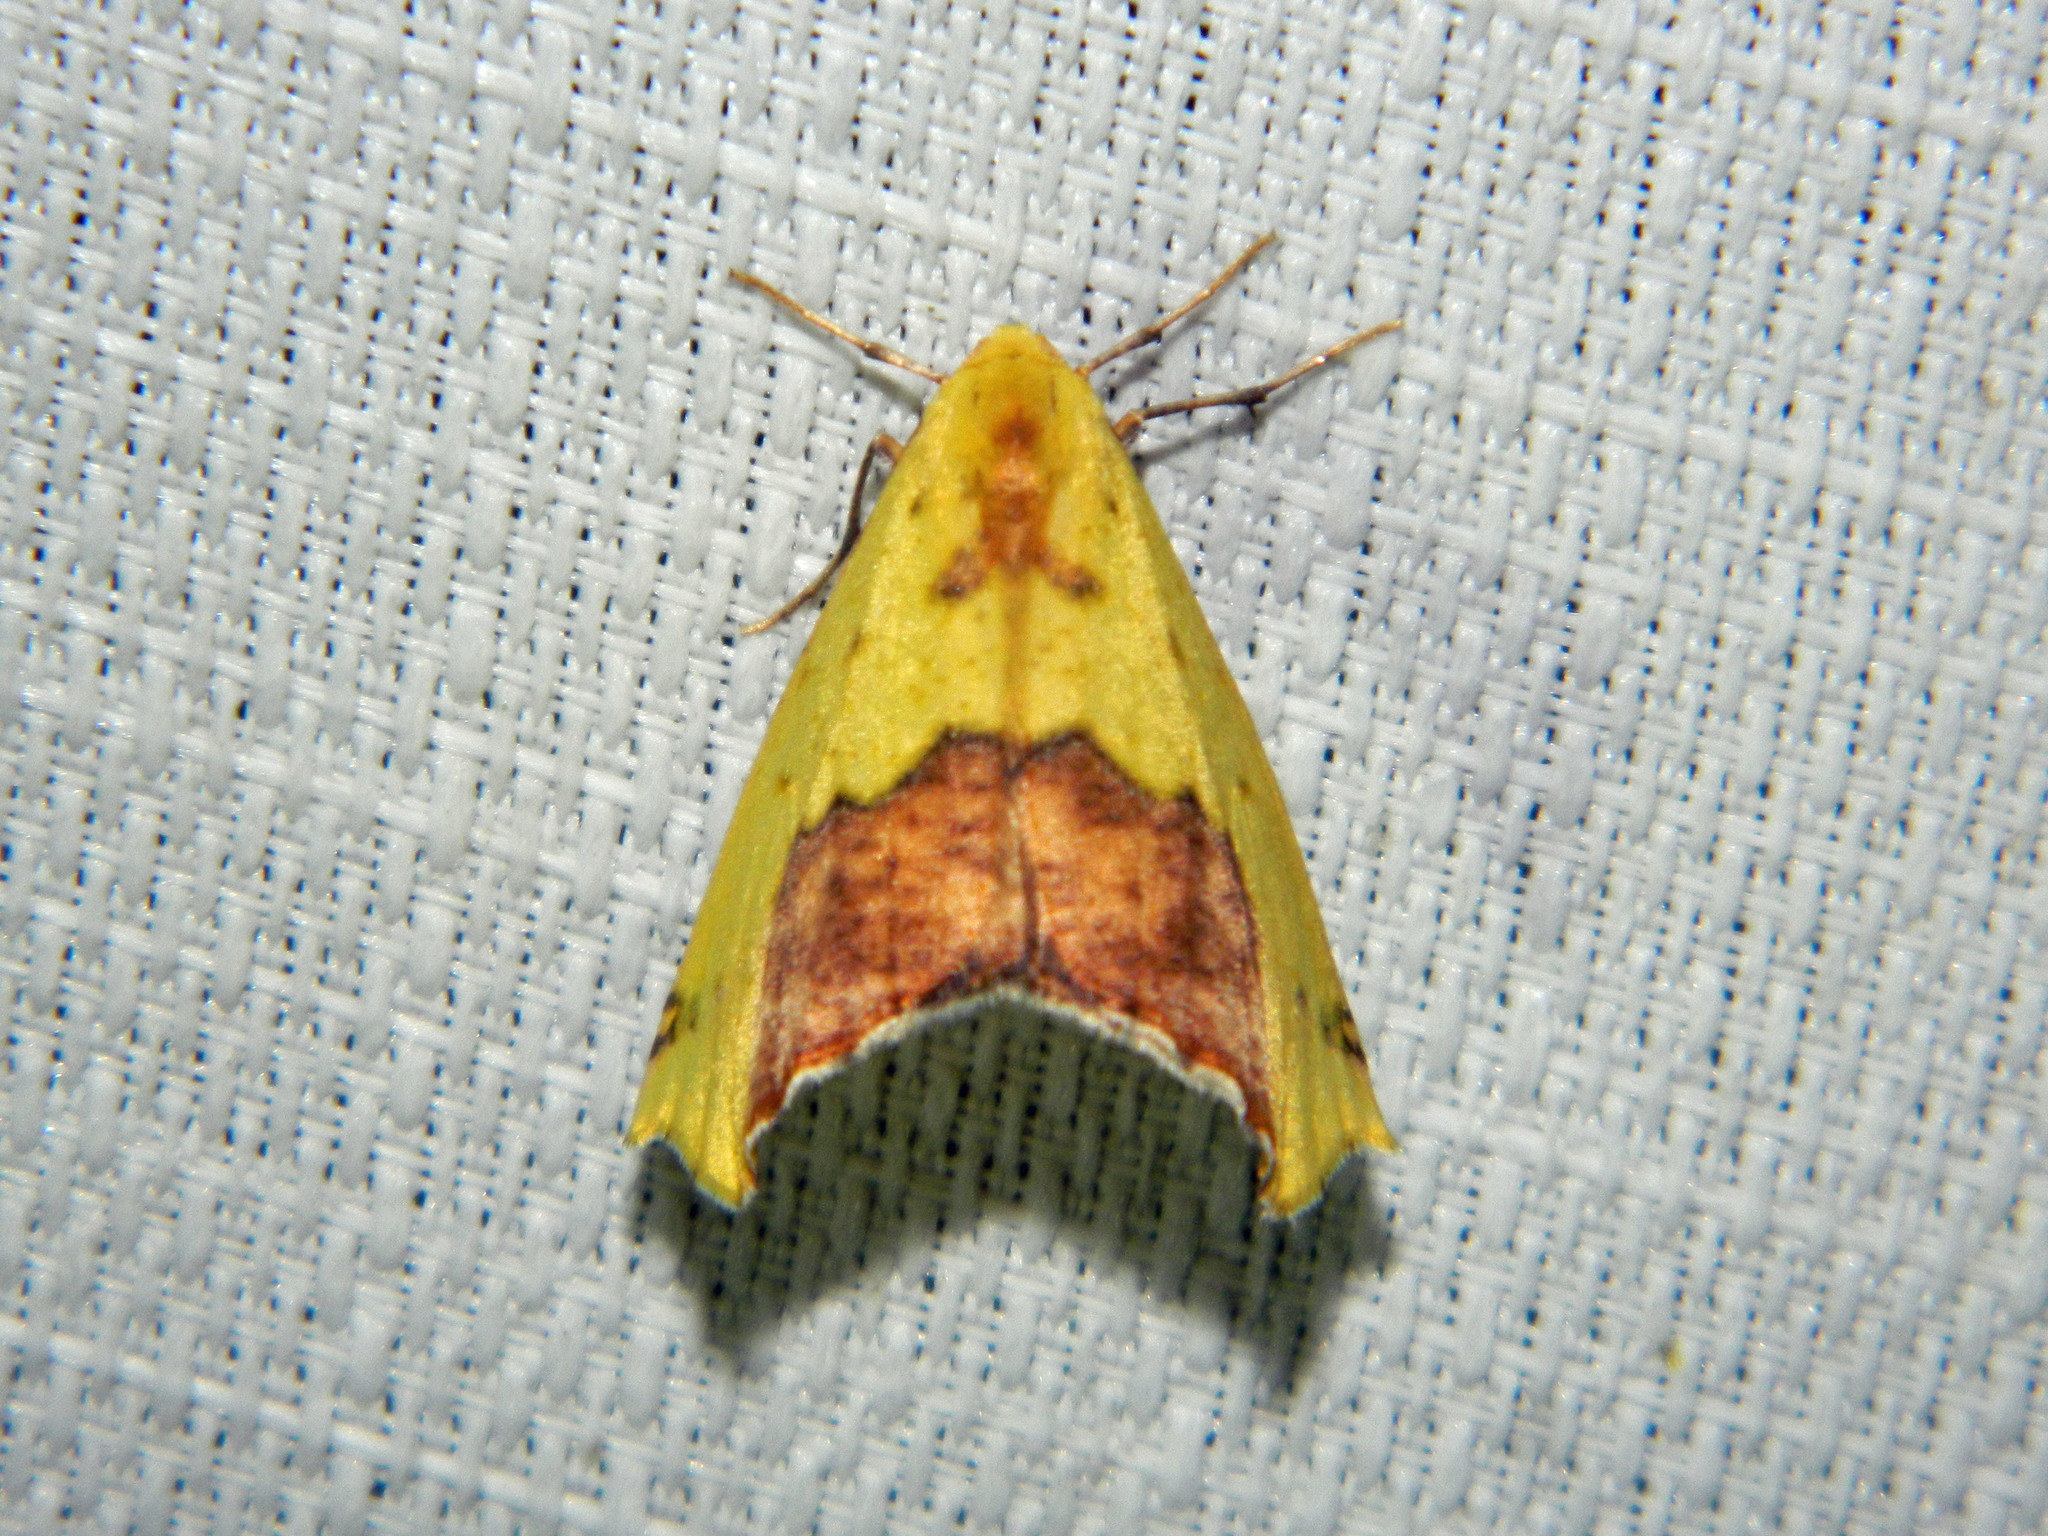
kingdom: Animalia
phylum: Arthropoda
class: Insecta
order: Lepidoptera
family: Geometridae
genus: Sicya
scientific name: Sicya macularia
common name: Sharp-lined yellow
